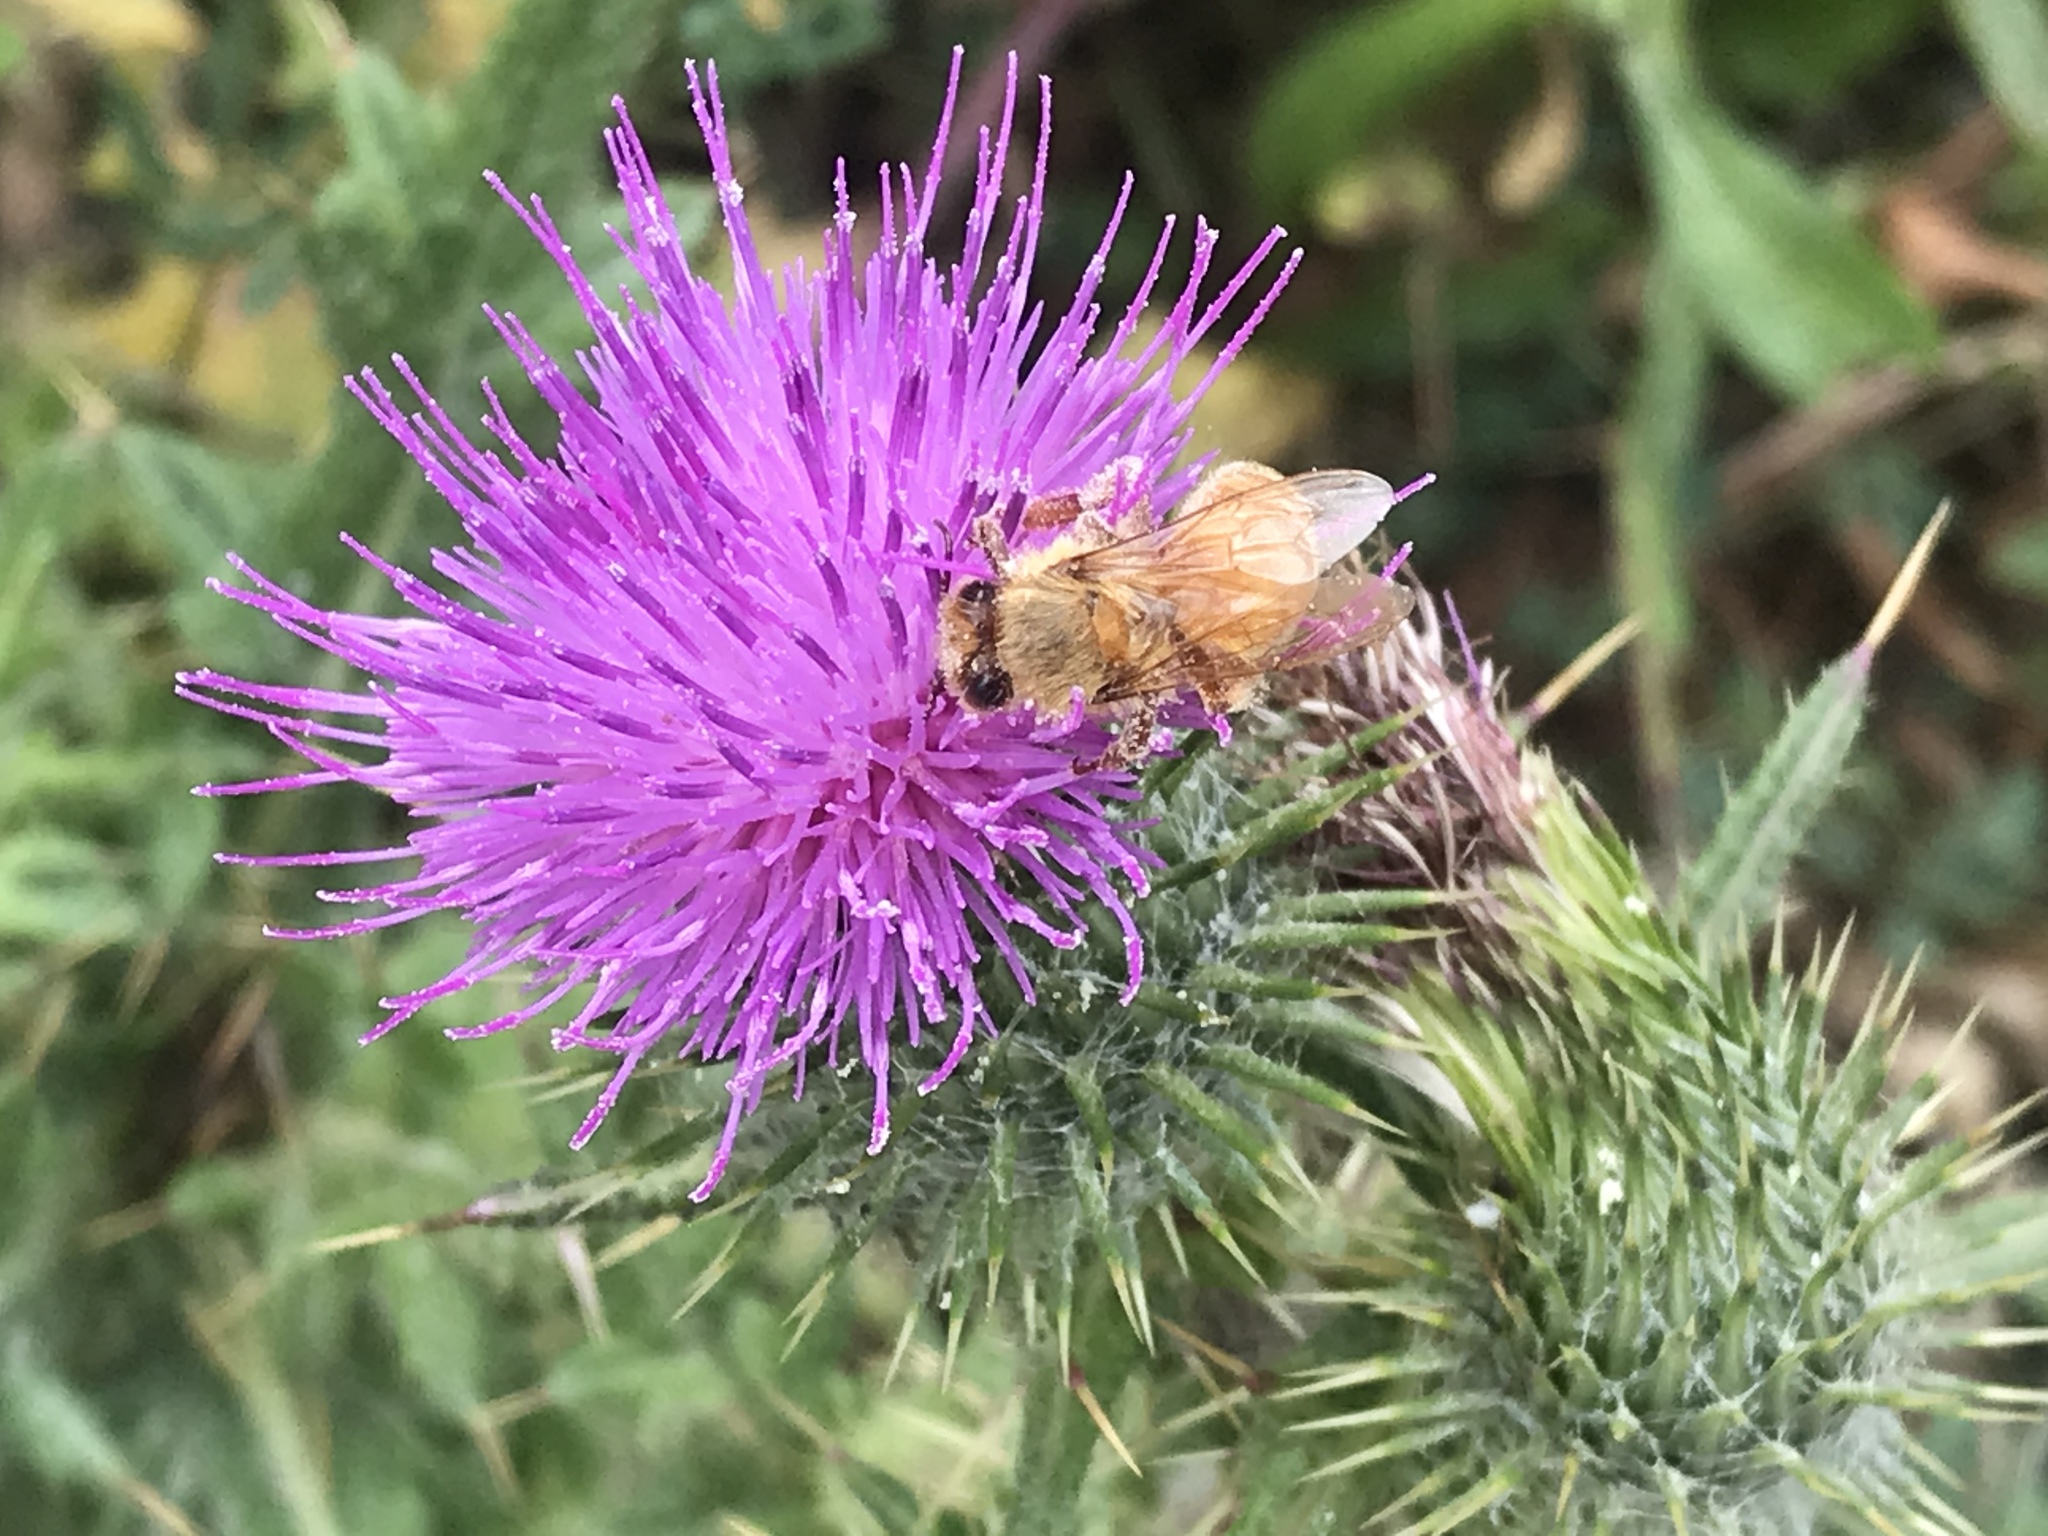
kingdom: Plantae
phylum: Tracheophyta
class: Magnoliopsida
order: Asterales
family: Asteraceae
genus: Cirsium
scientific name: Cirsium vulgare
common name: Bull thistle
